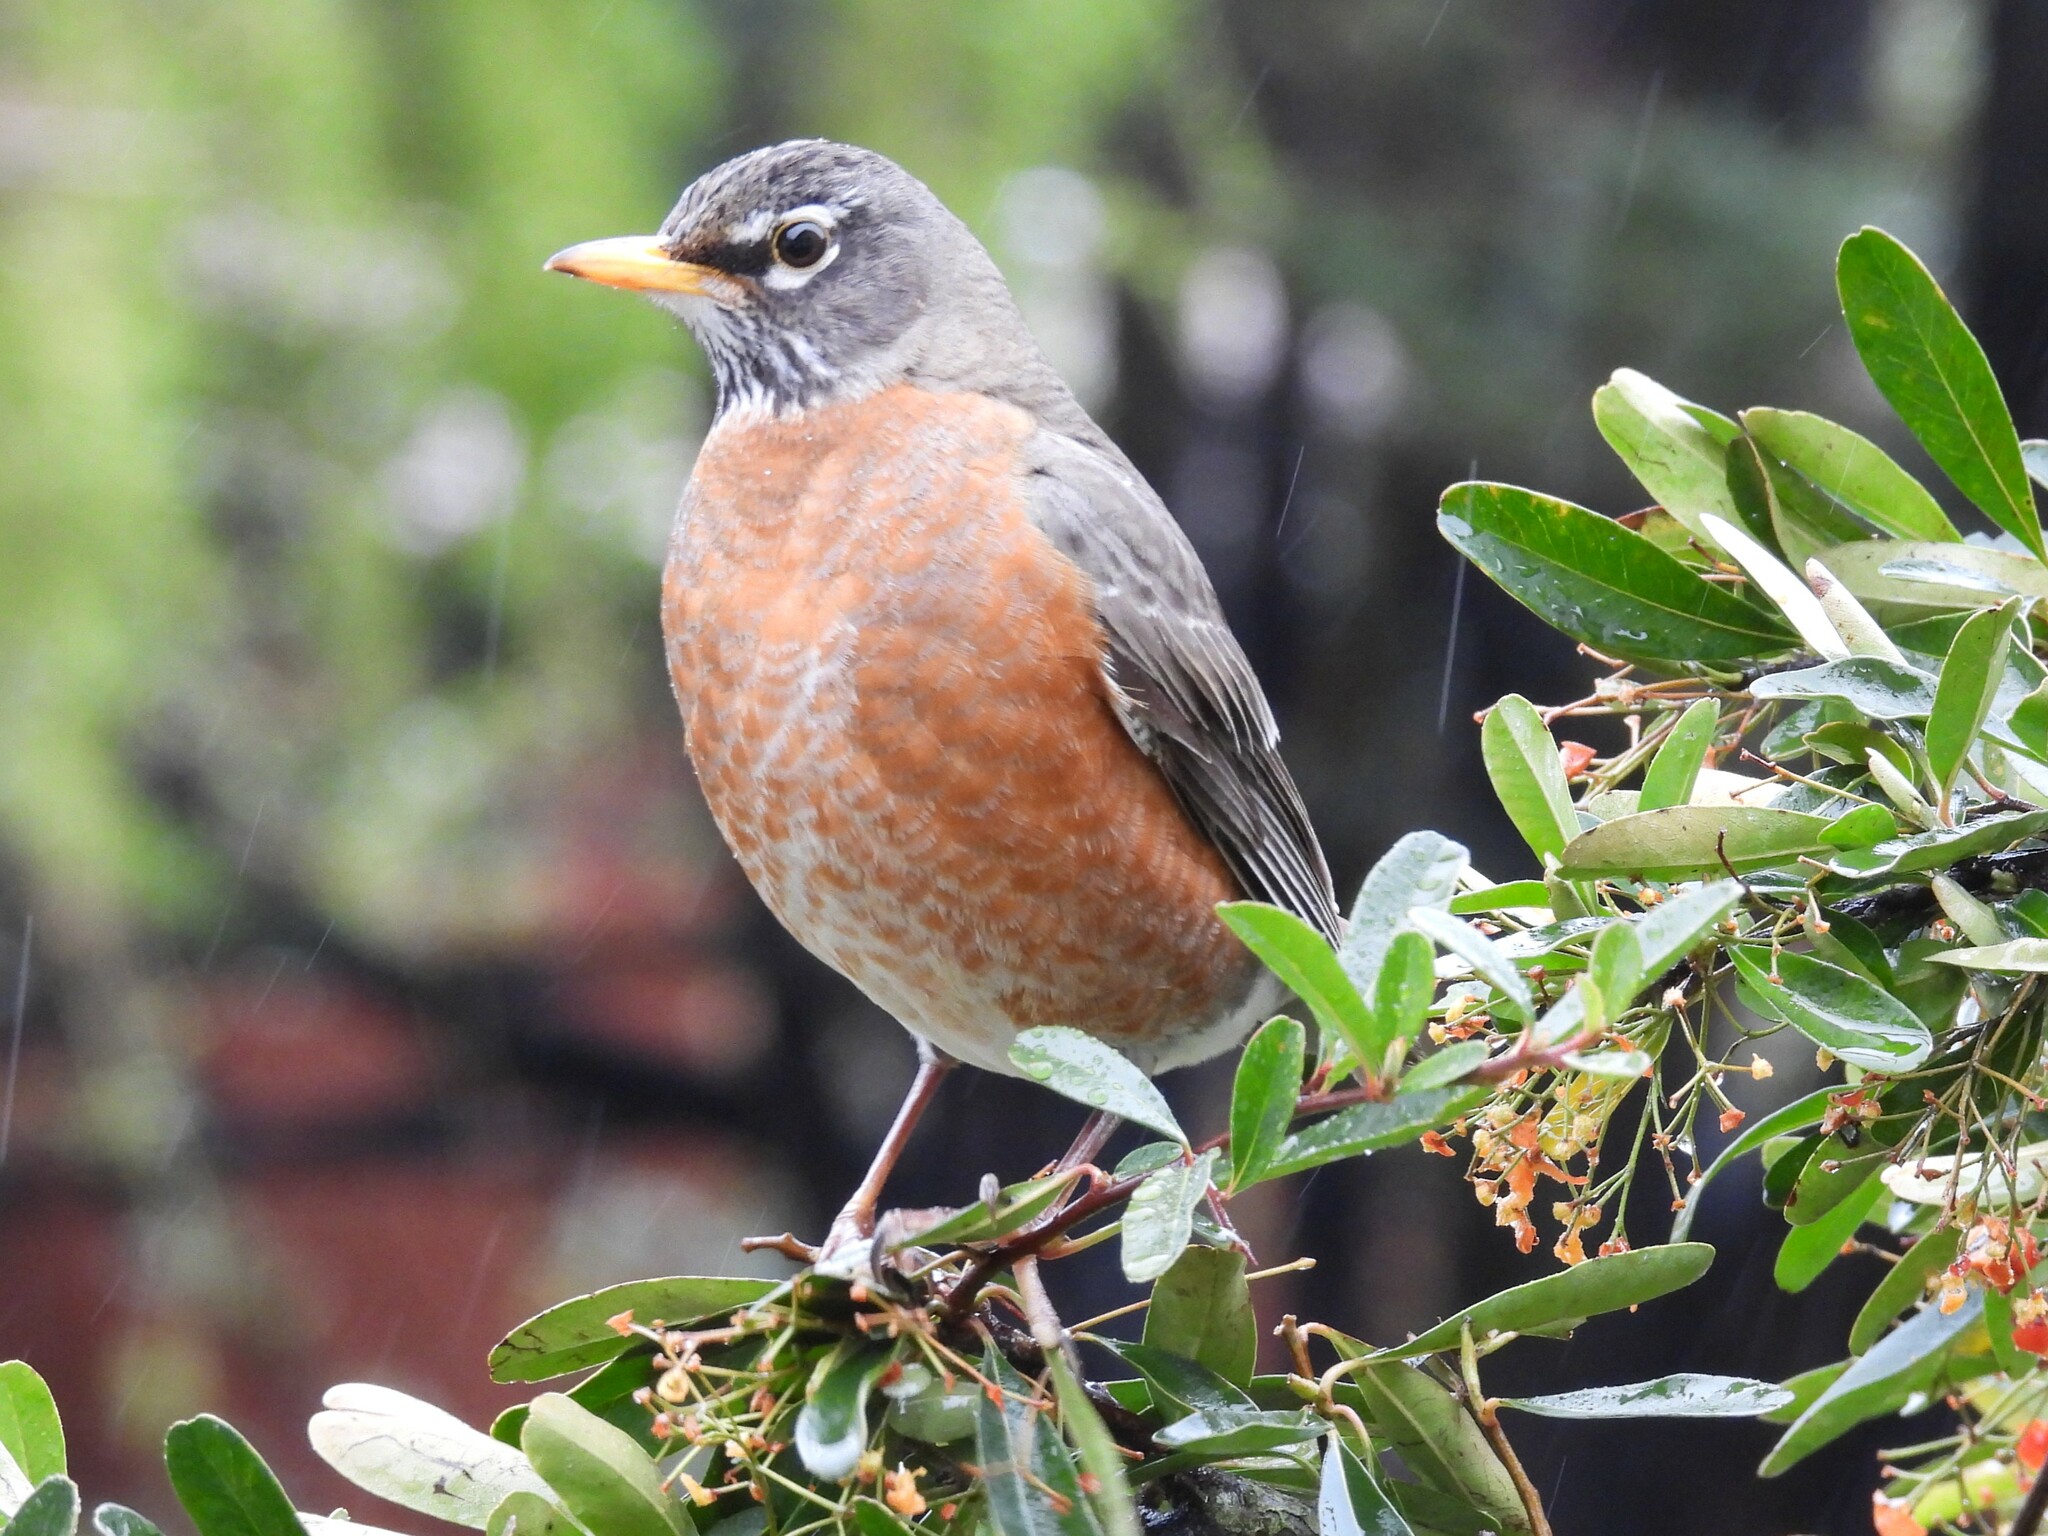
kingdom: Animalia
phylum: Chordata
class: Aves
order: Passeriformes
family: Turdidae
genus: Turdus
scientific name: Turdus migratorius
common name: American robin
